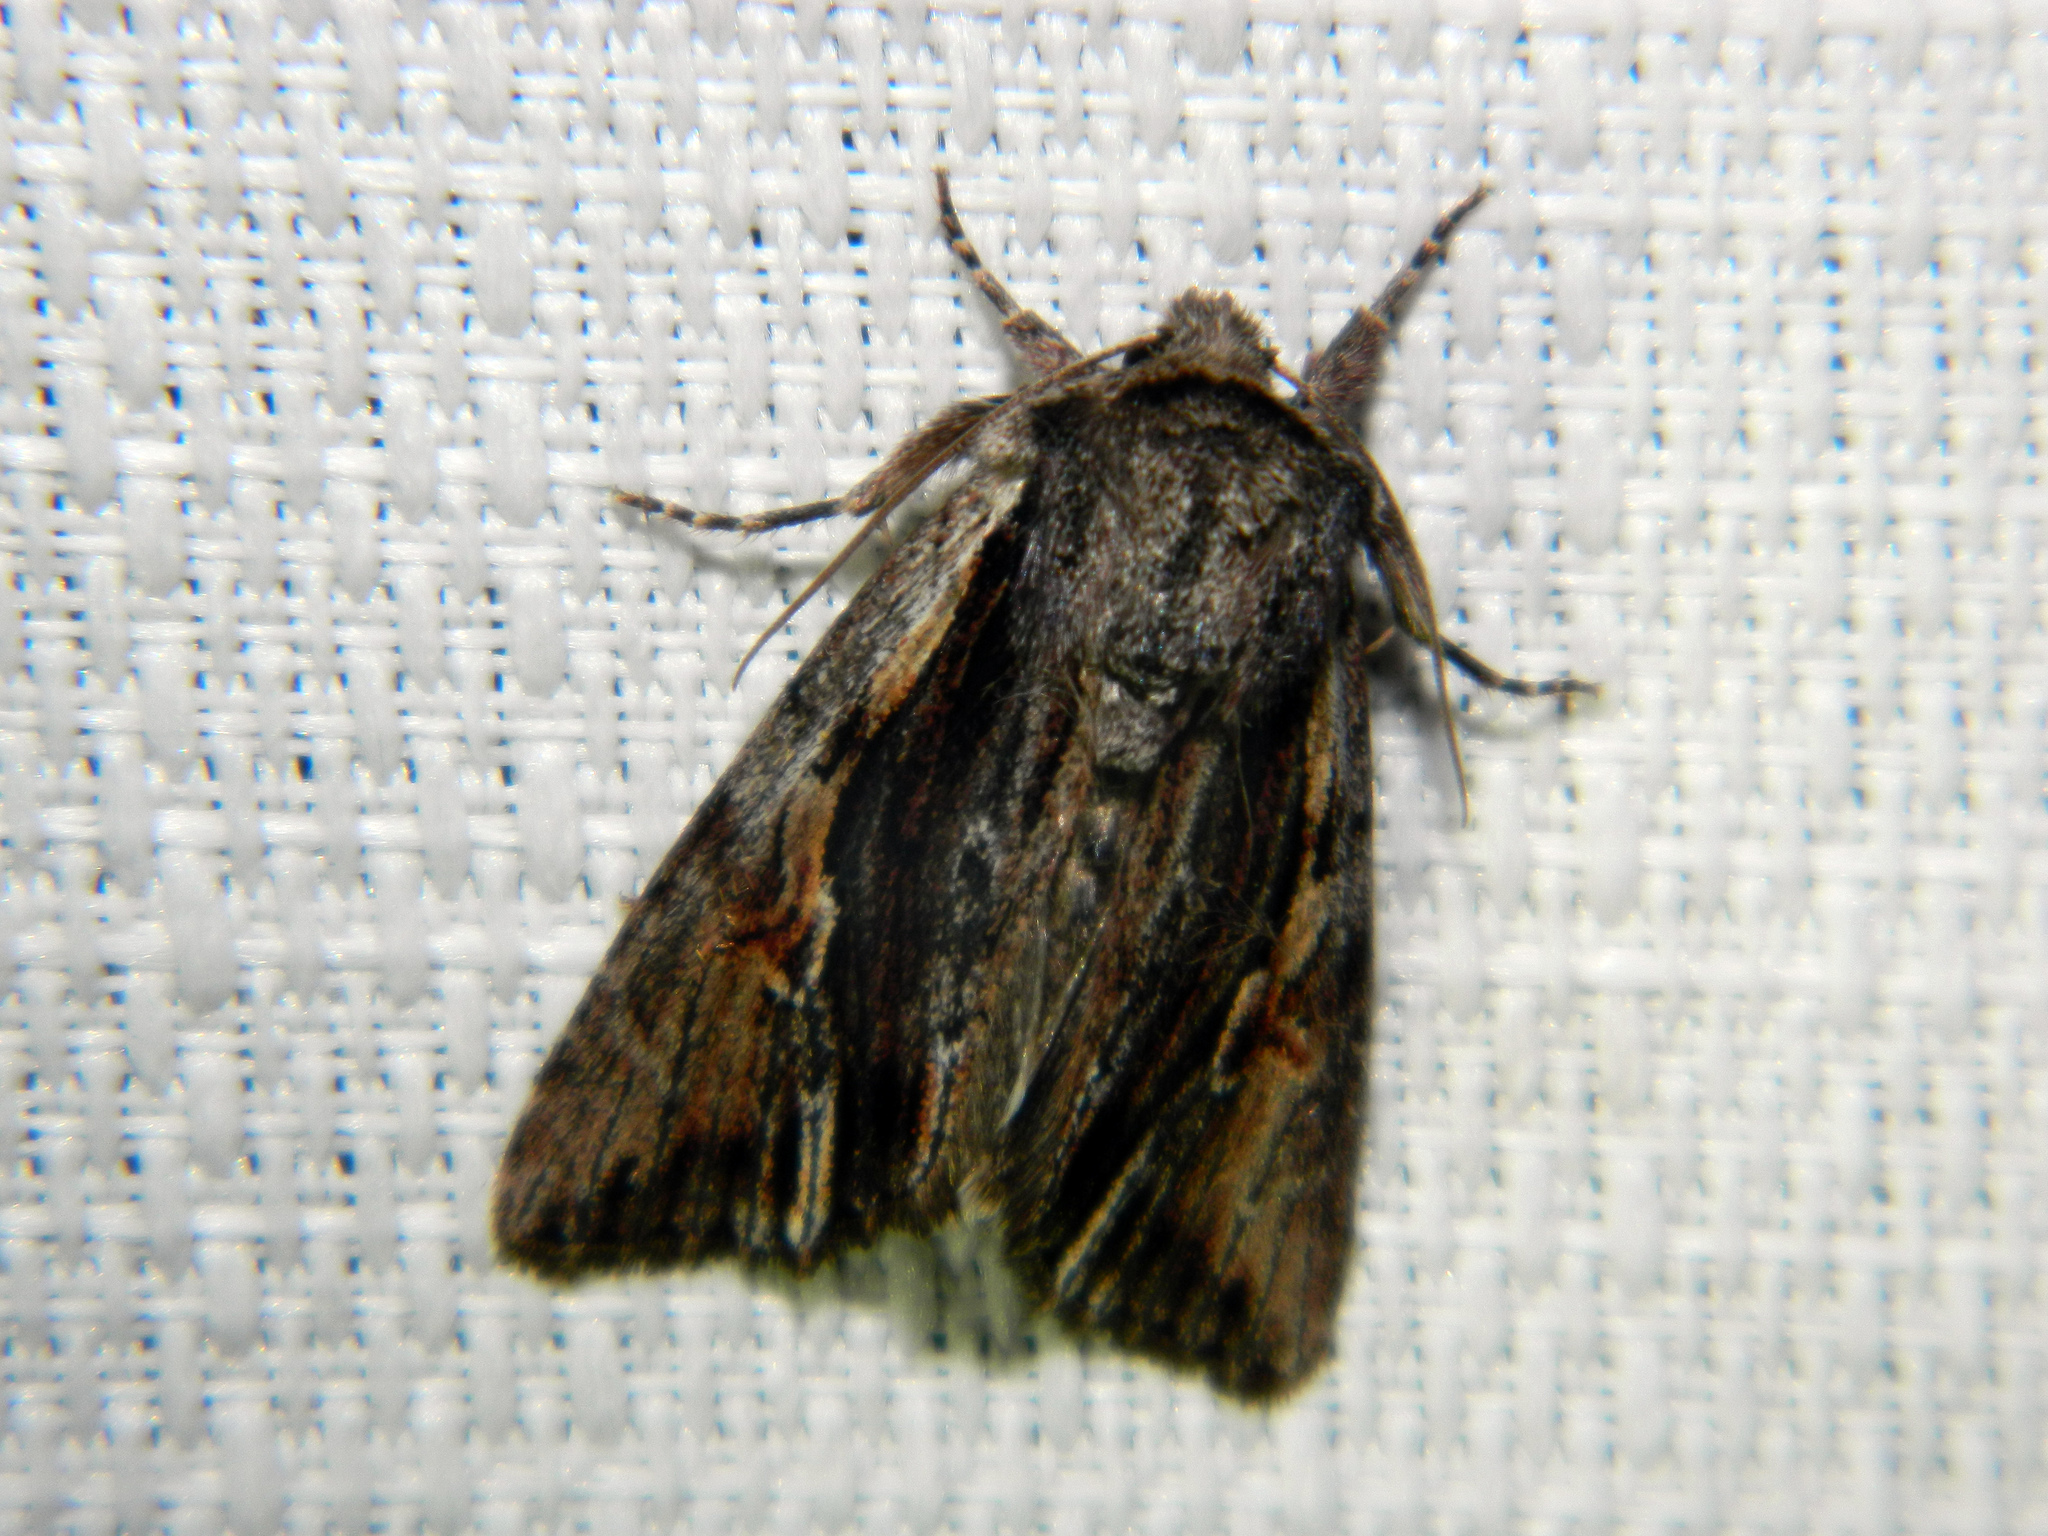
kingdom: Animalia
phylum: Arthropoda
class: Insecta
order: Lepidoptera
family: Noctuidae
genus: Achatia
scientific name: Achatia evicta
